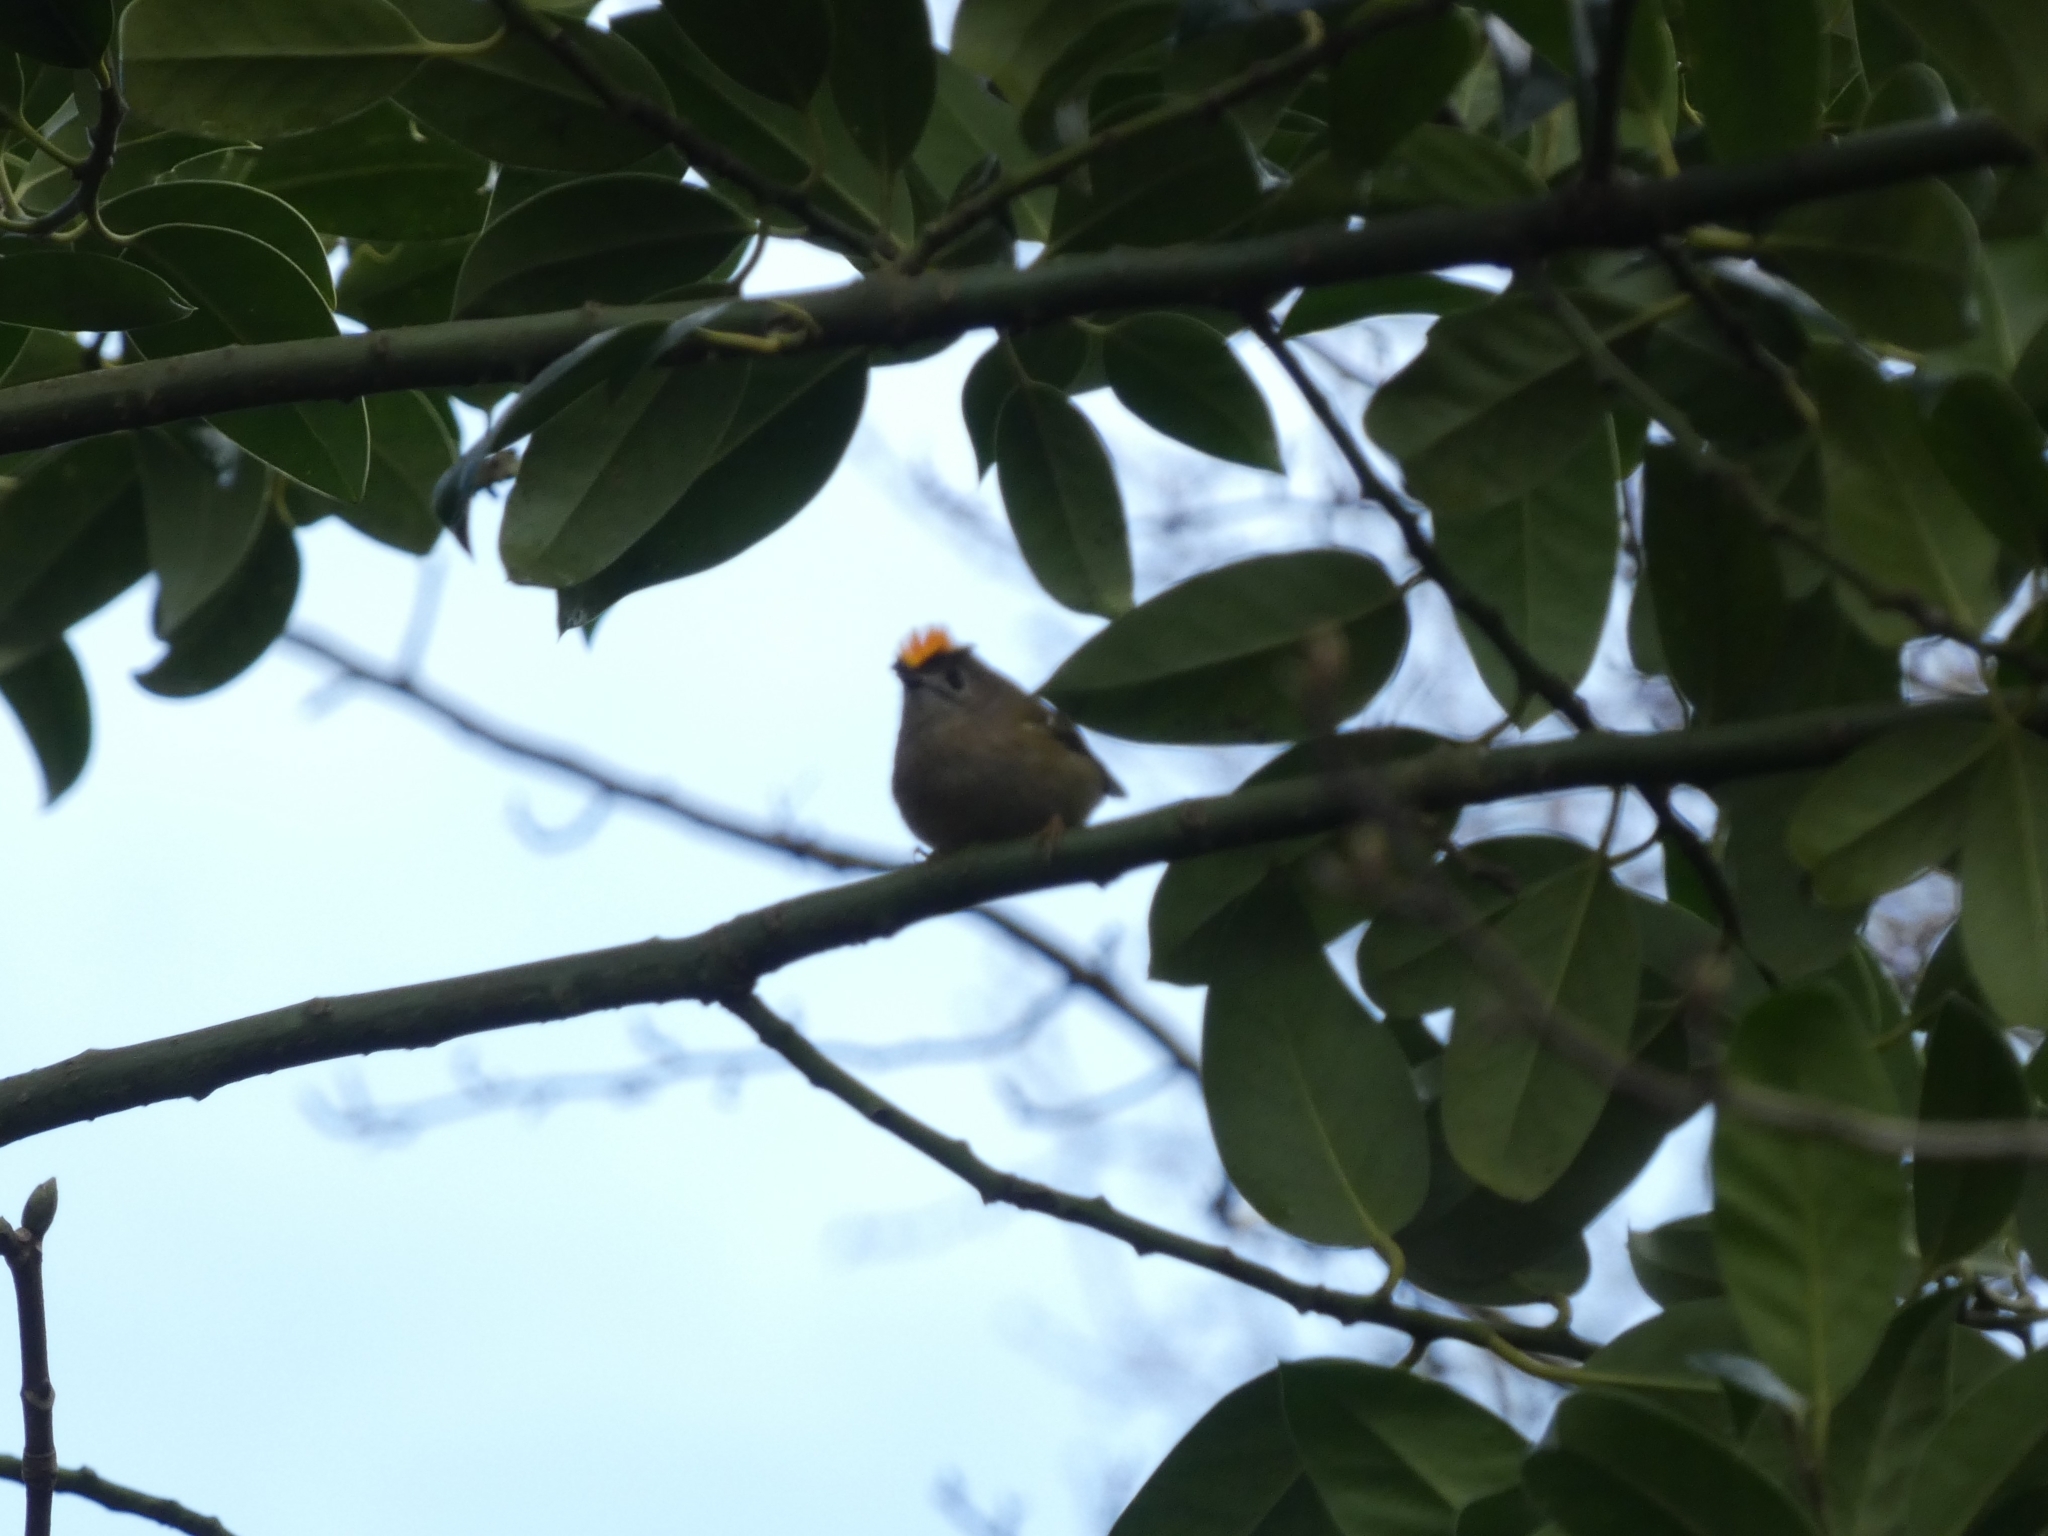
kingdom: Animalia
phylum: Chordata
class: Aves
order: Passeriformes
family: Regulidae
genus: Regulus
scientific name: Regulus regulus
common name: Goldcrest
